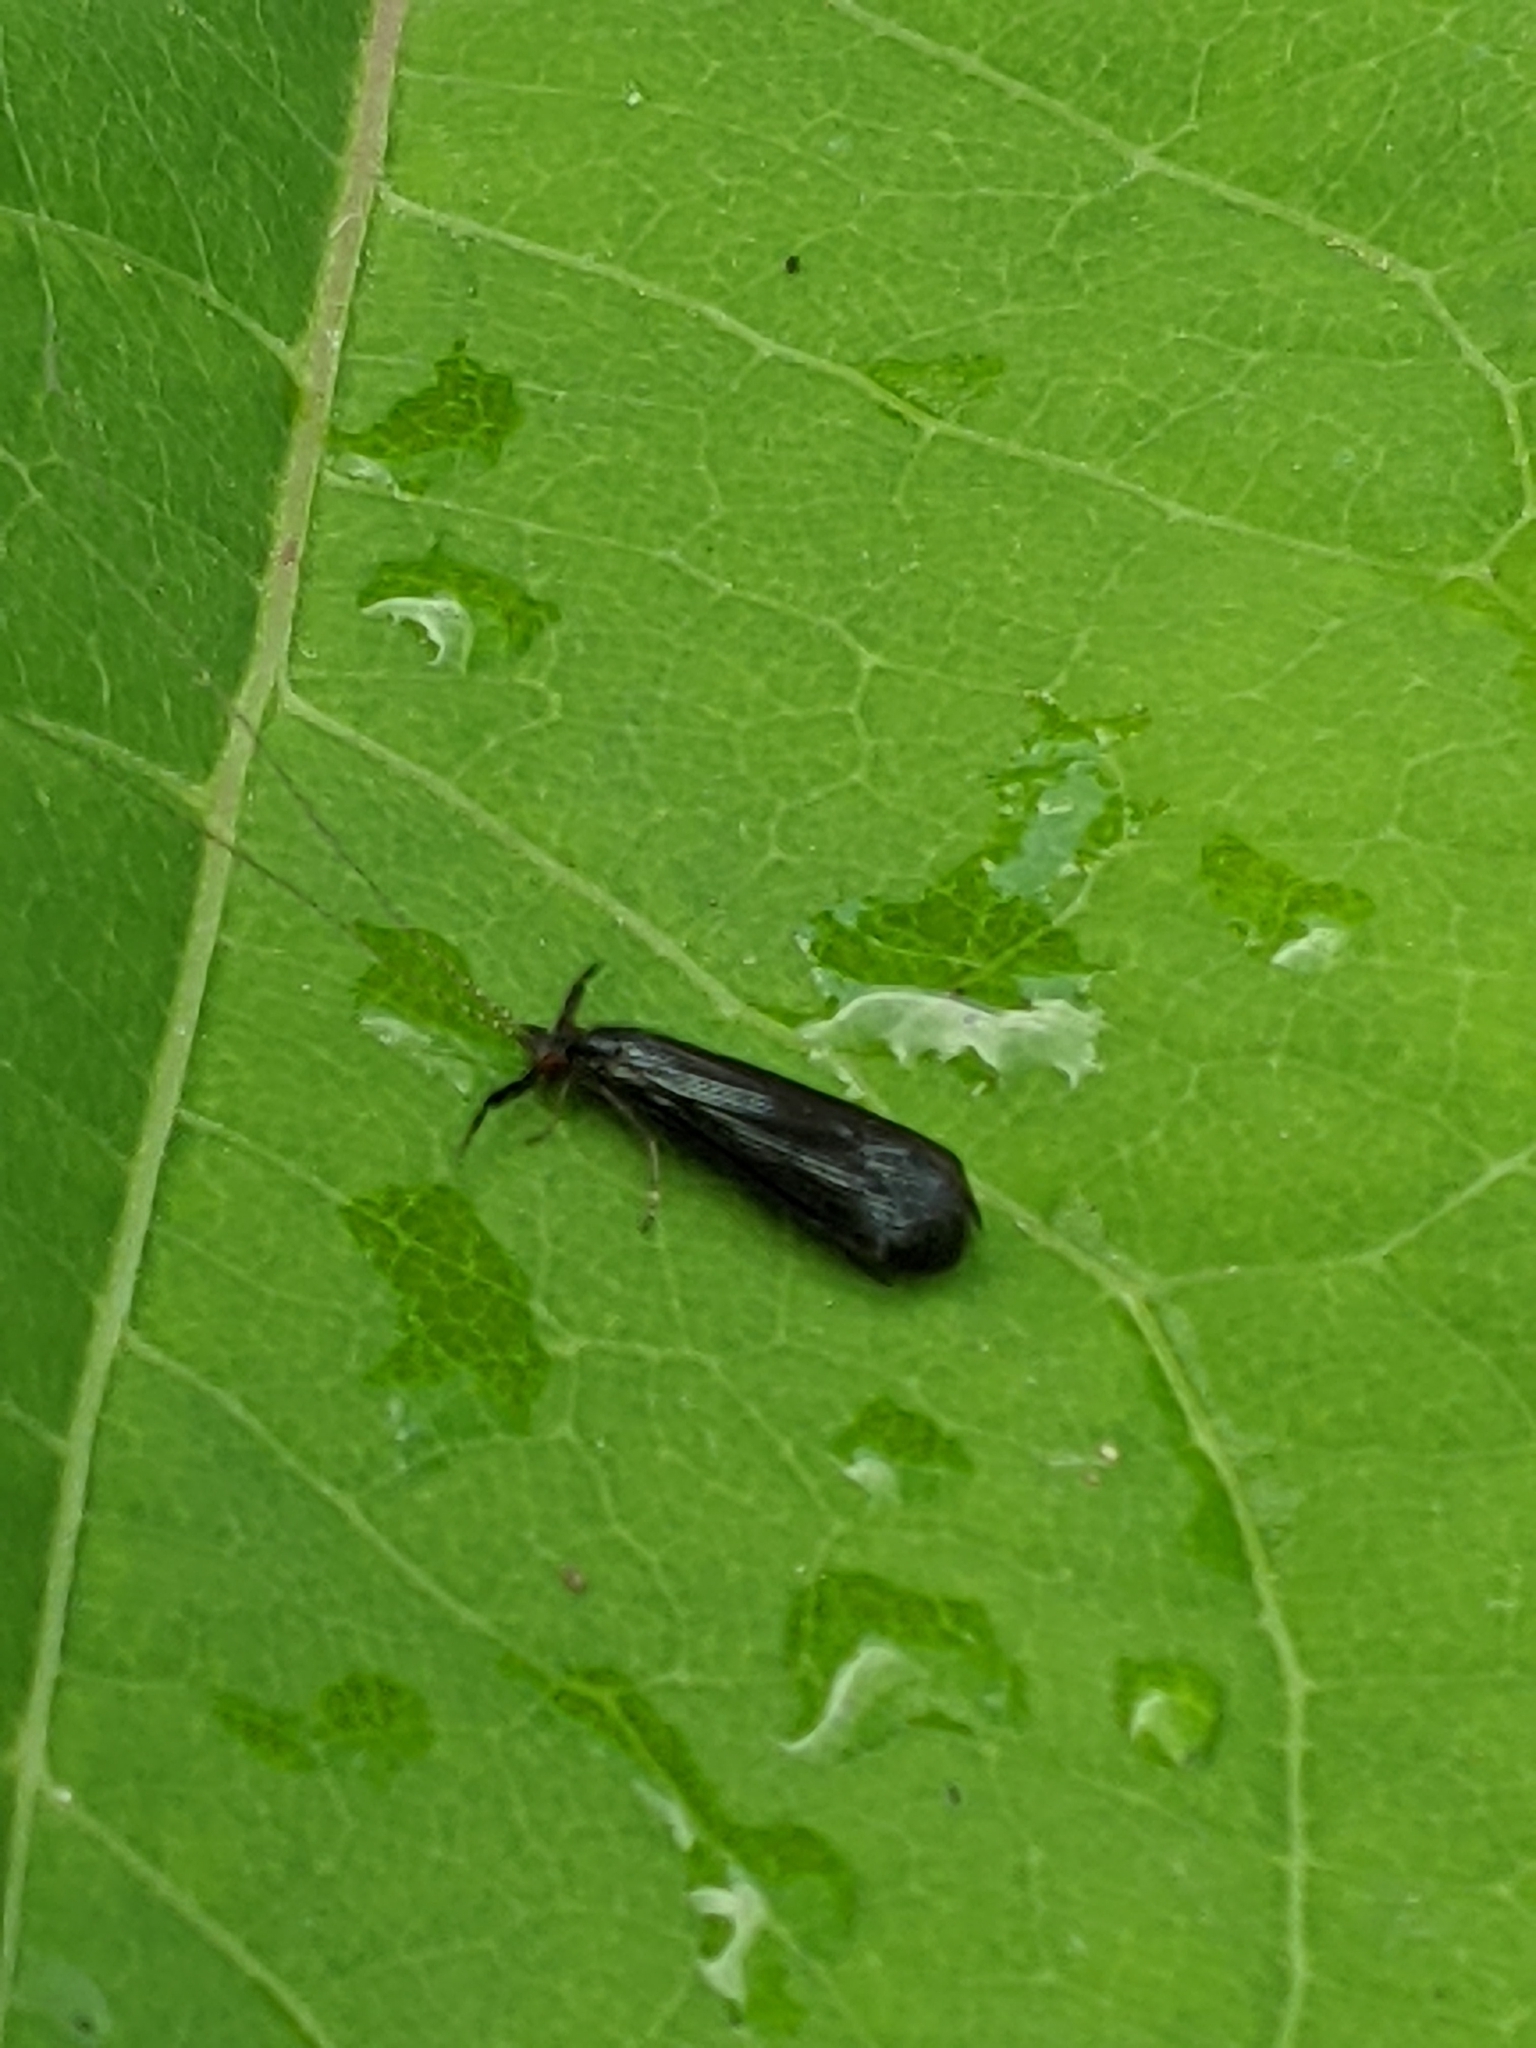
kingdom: Animalia
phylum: Arthropoda
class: Insecta
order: Trichoptera
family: Leptoceridae
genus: Mystacides
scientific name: Mystacides sepulchralis
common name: Black dancer caddisfly
